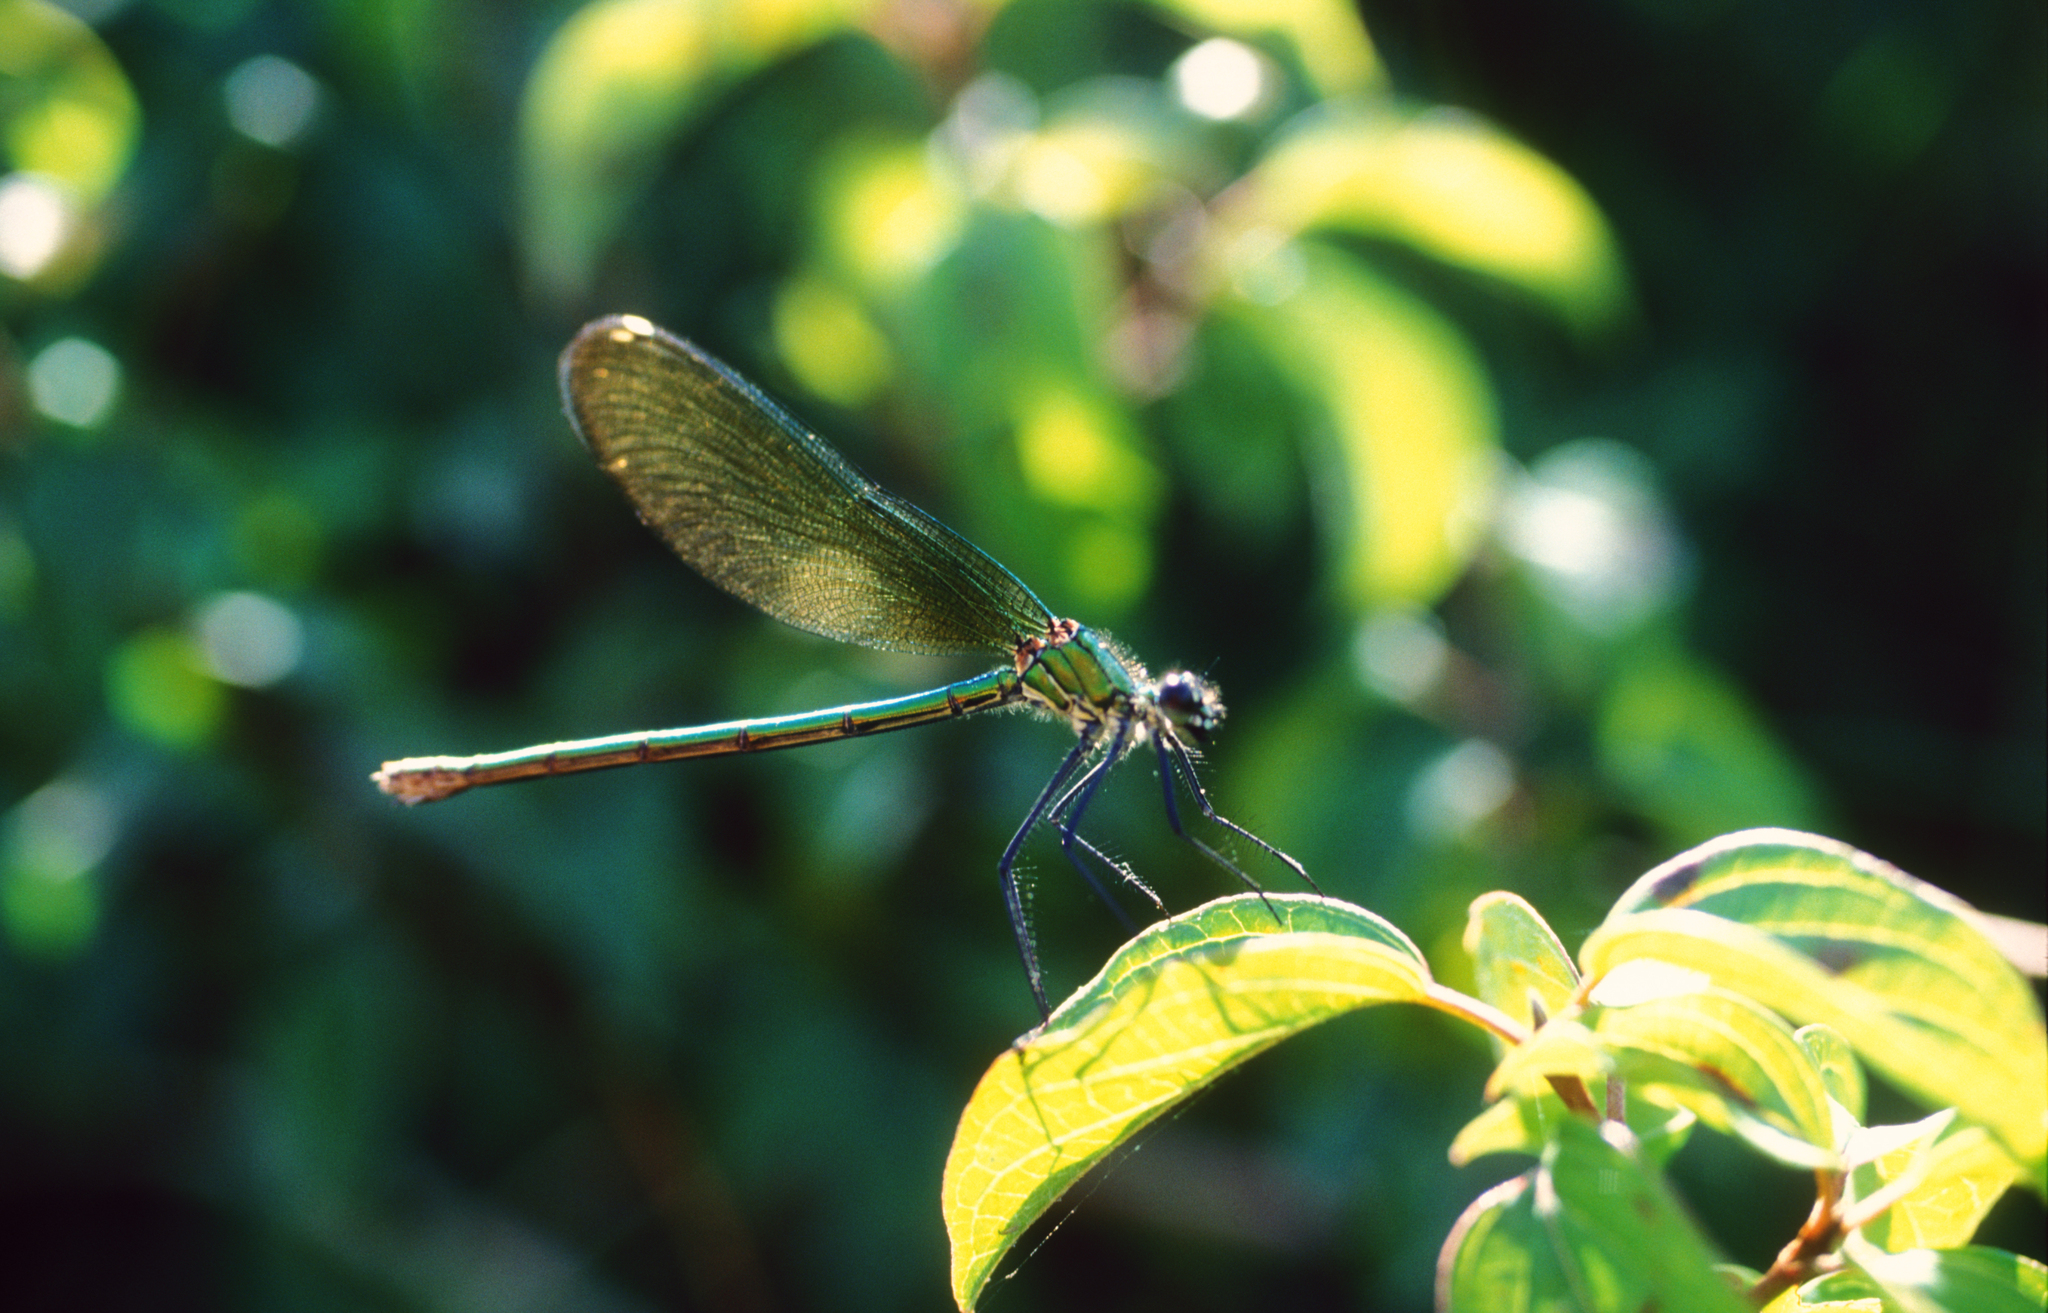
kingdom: Animalia
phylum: Arthropoda
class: Insecta
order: Odonata
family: Calopterygidae
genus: Calopteryx
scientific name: Calopteryx splendens
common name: Banded demoiselle
